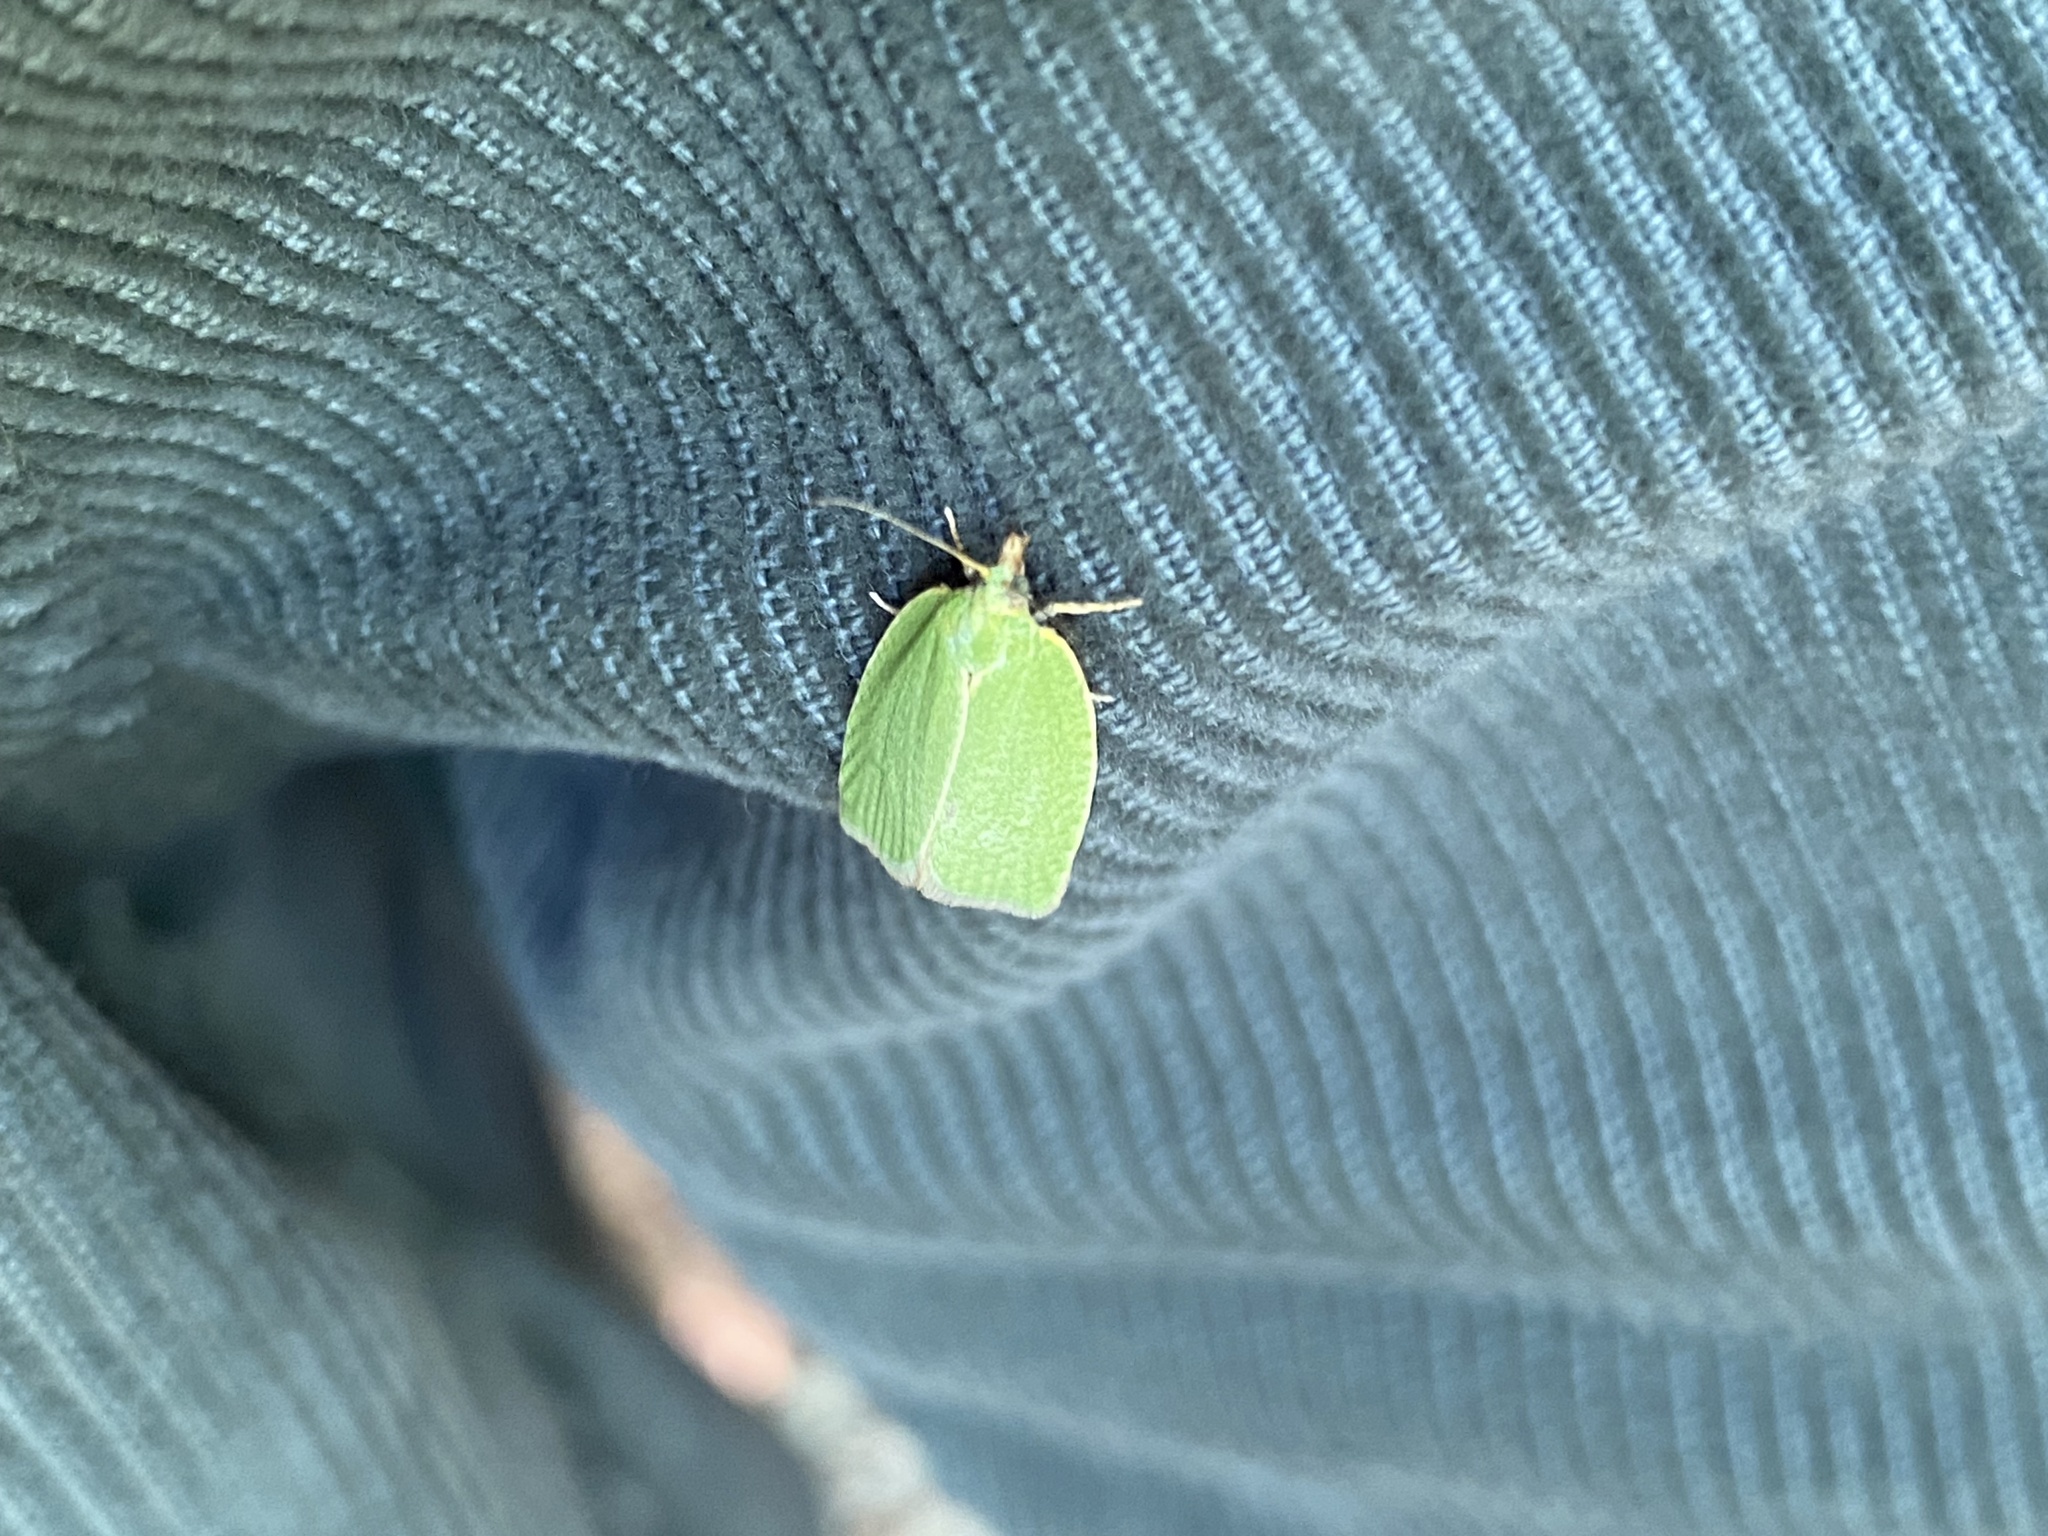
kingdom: Animalia
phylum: Arthropoda
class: Insecta
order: Lepidoptera
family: Tortricidae
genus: Tortrix
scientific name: Tortrix viridana
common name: Green oak tortrix
